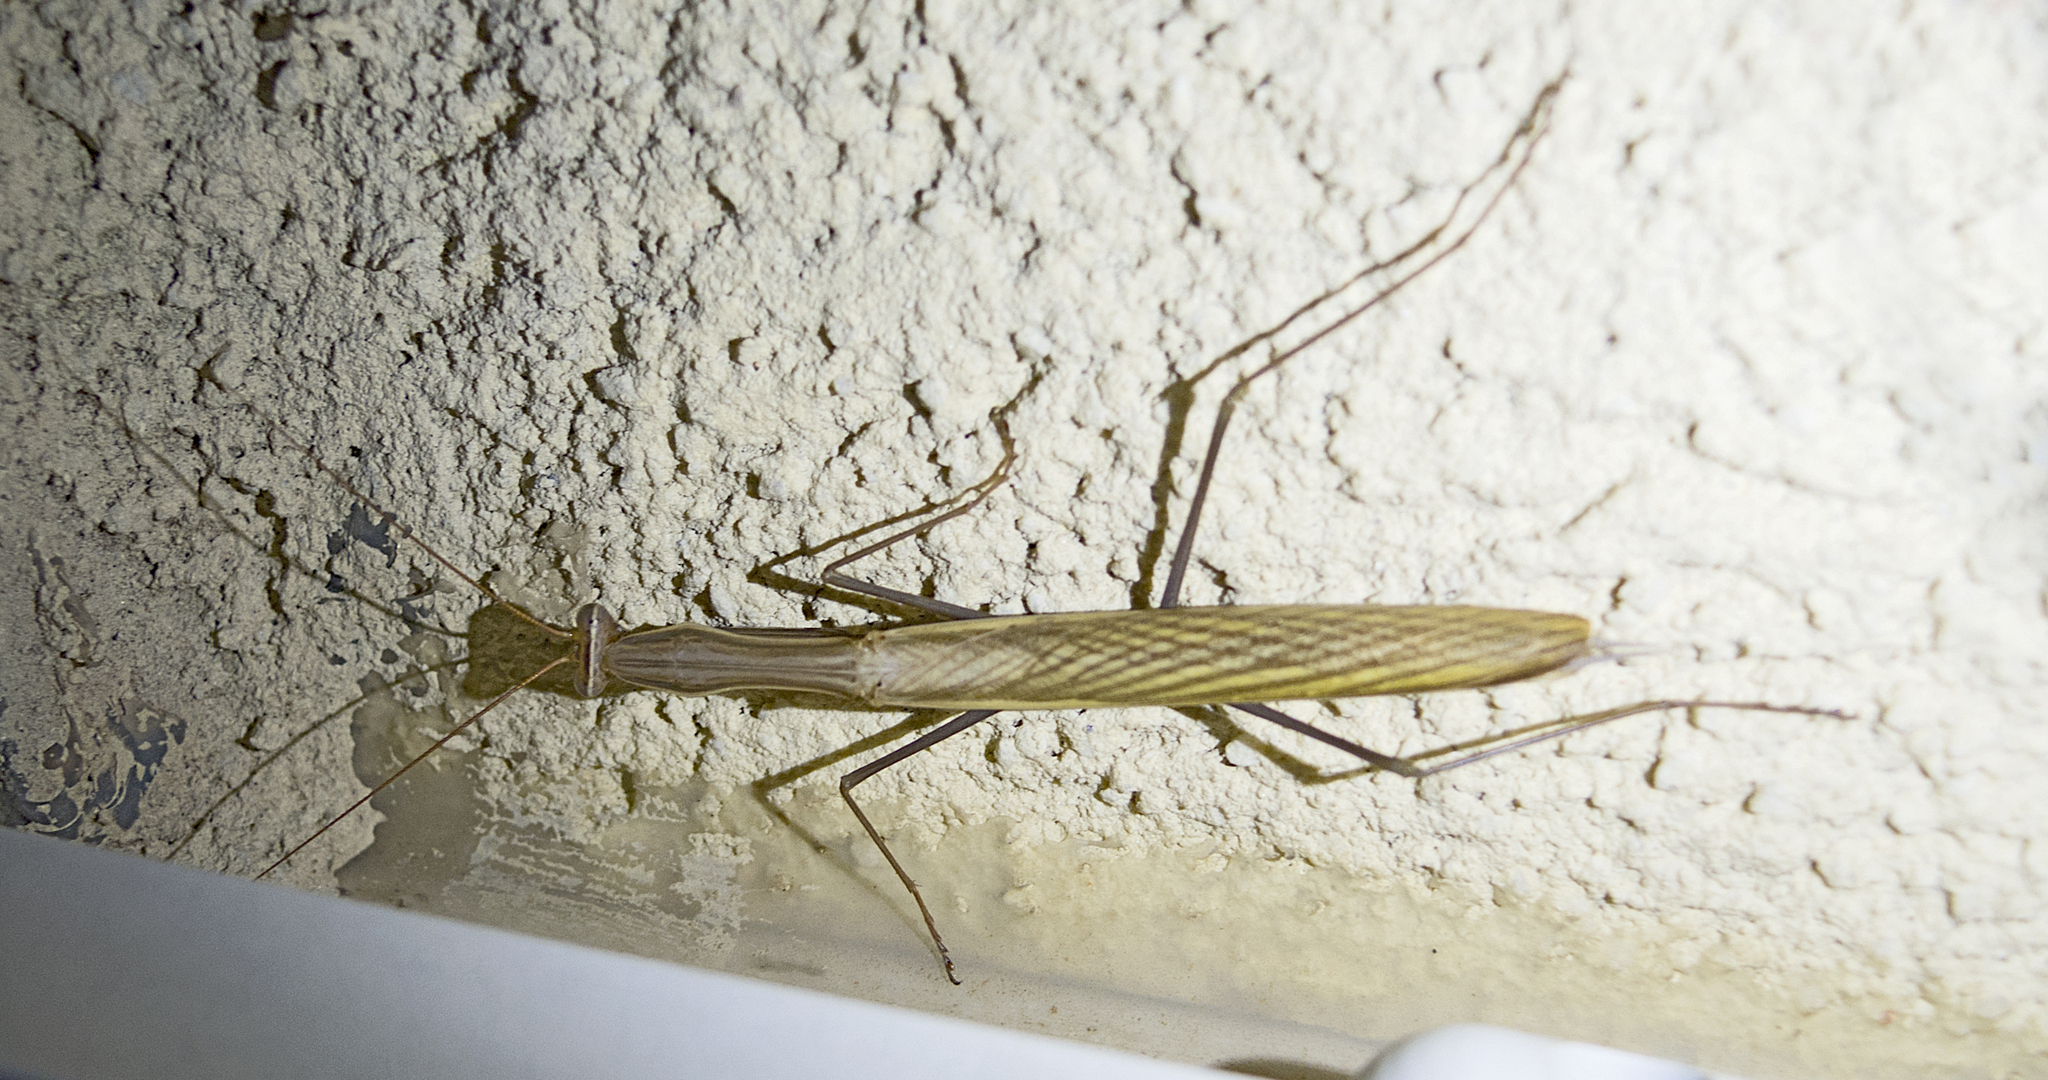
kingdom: Animalia
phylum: Arthropoda
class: Insecta
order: Mantodea
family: Mantidae
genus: Mantis
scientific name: Mantis religiosa
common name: Praying mantis
